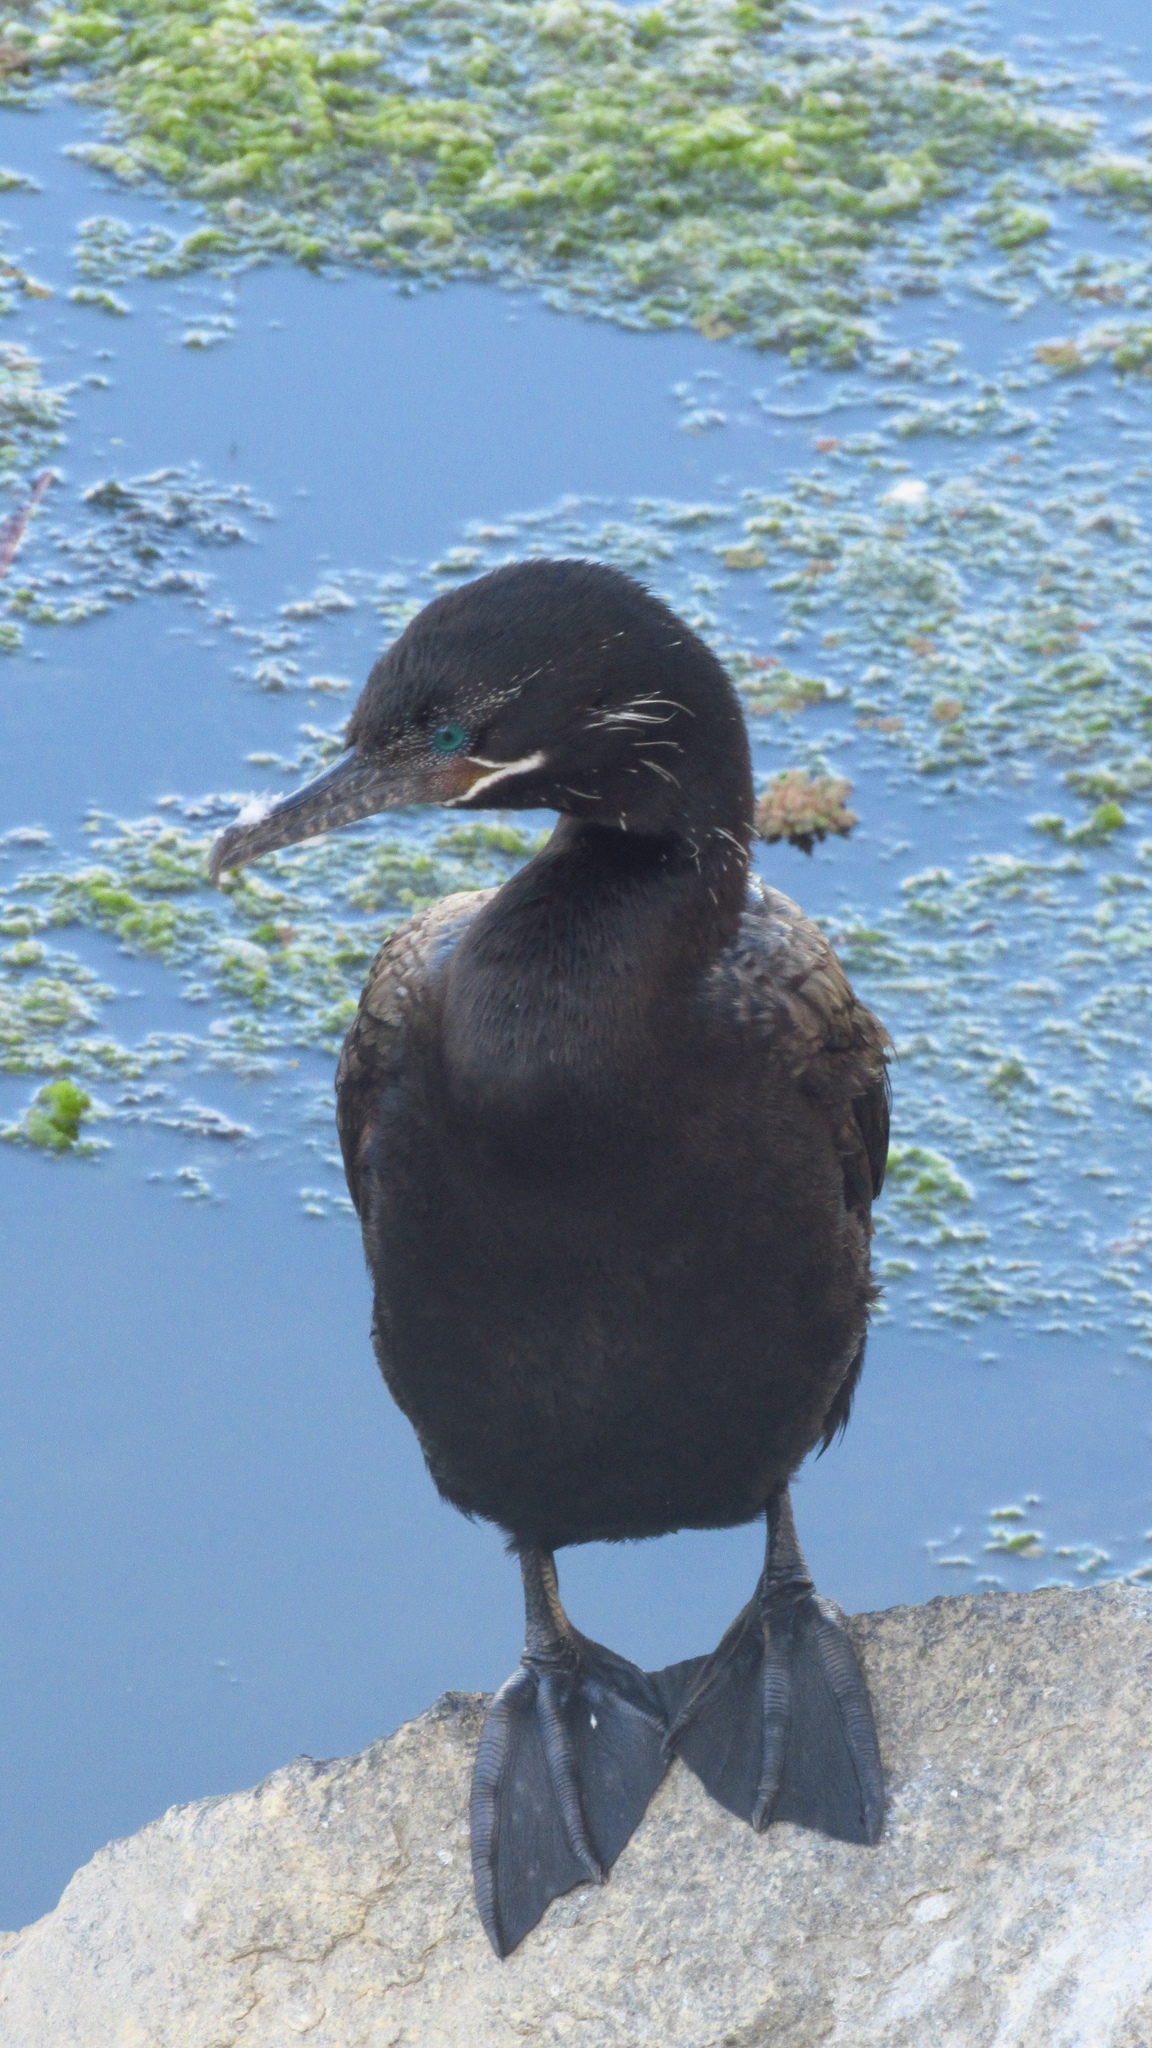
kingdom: Animalia
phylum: Chordata
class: Aves
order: Suliformes
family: Phalacrocoracidae
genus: Phalacrocorax
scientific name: Phalacrocorax brasilianus
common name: Neotropic cormorant
